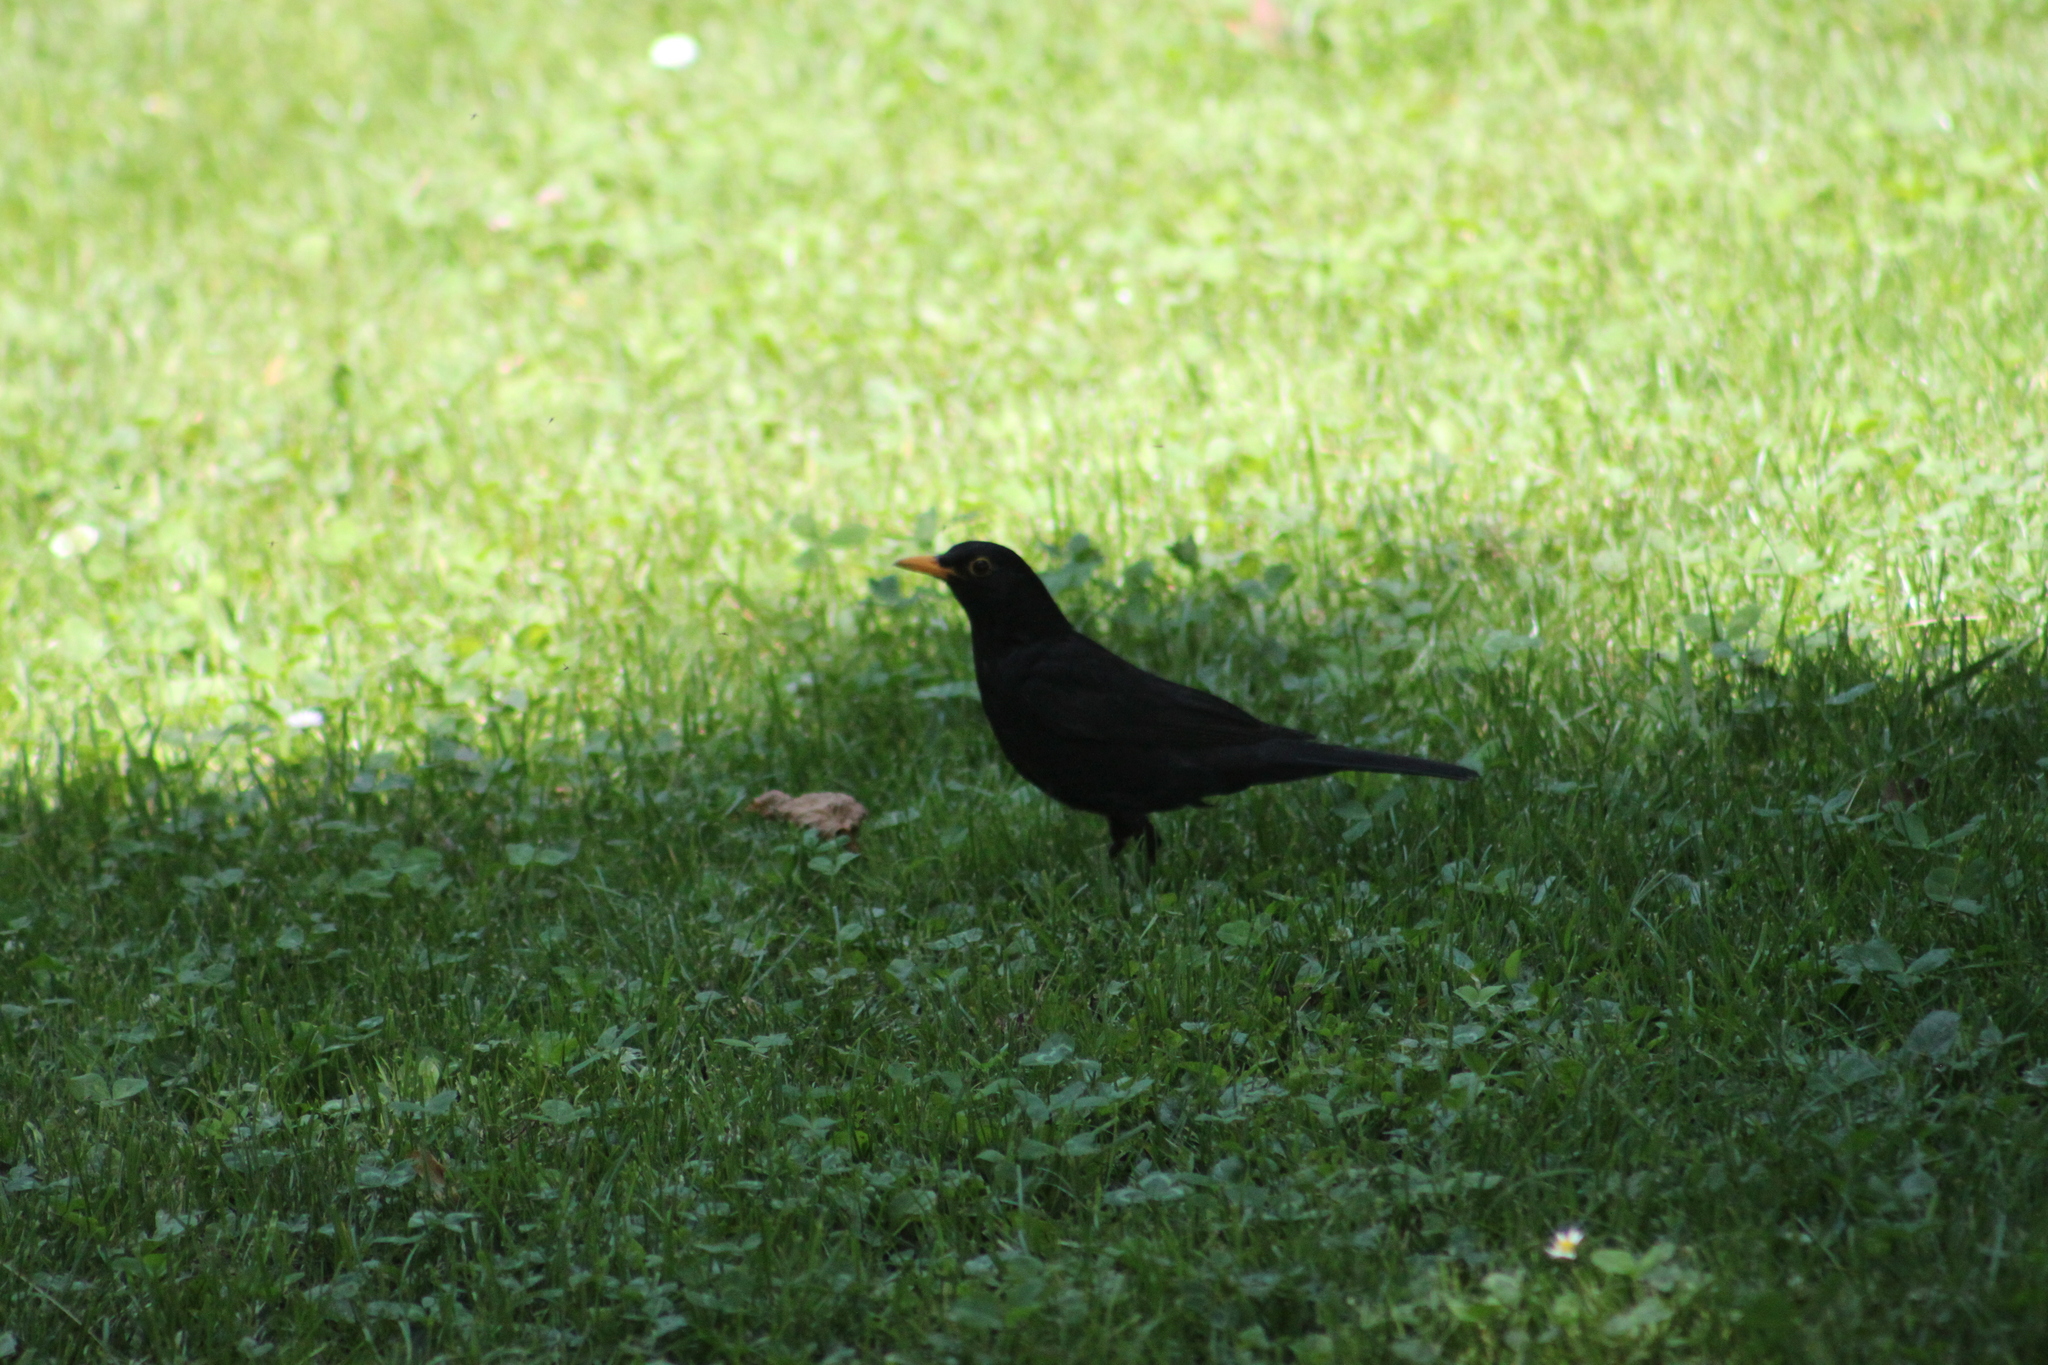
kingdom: Animalia
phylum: Chordata
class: Aves
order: Passeriformes
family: Turdidae
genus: Turdus
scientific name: Turdus merula
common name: Common blackbird
